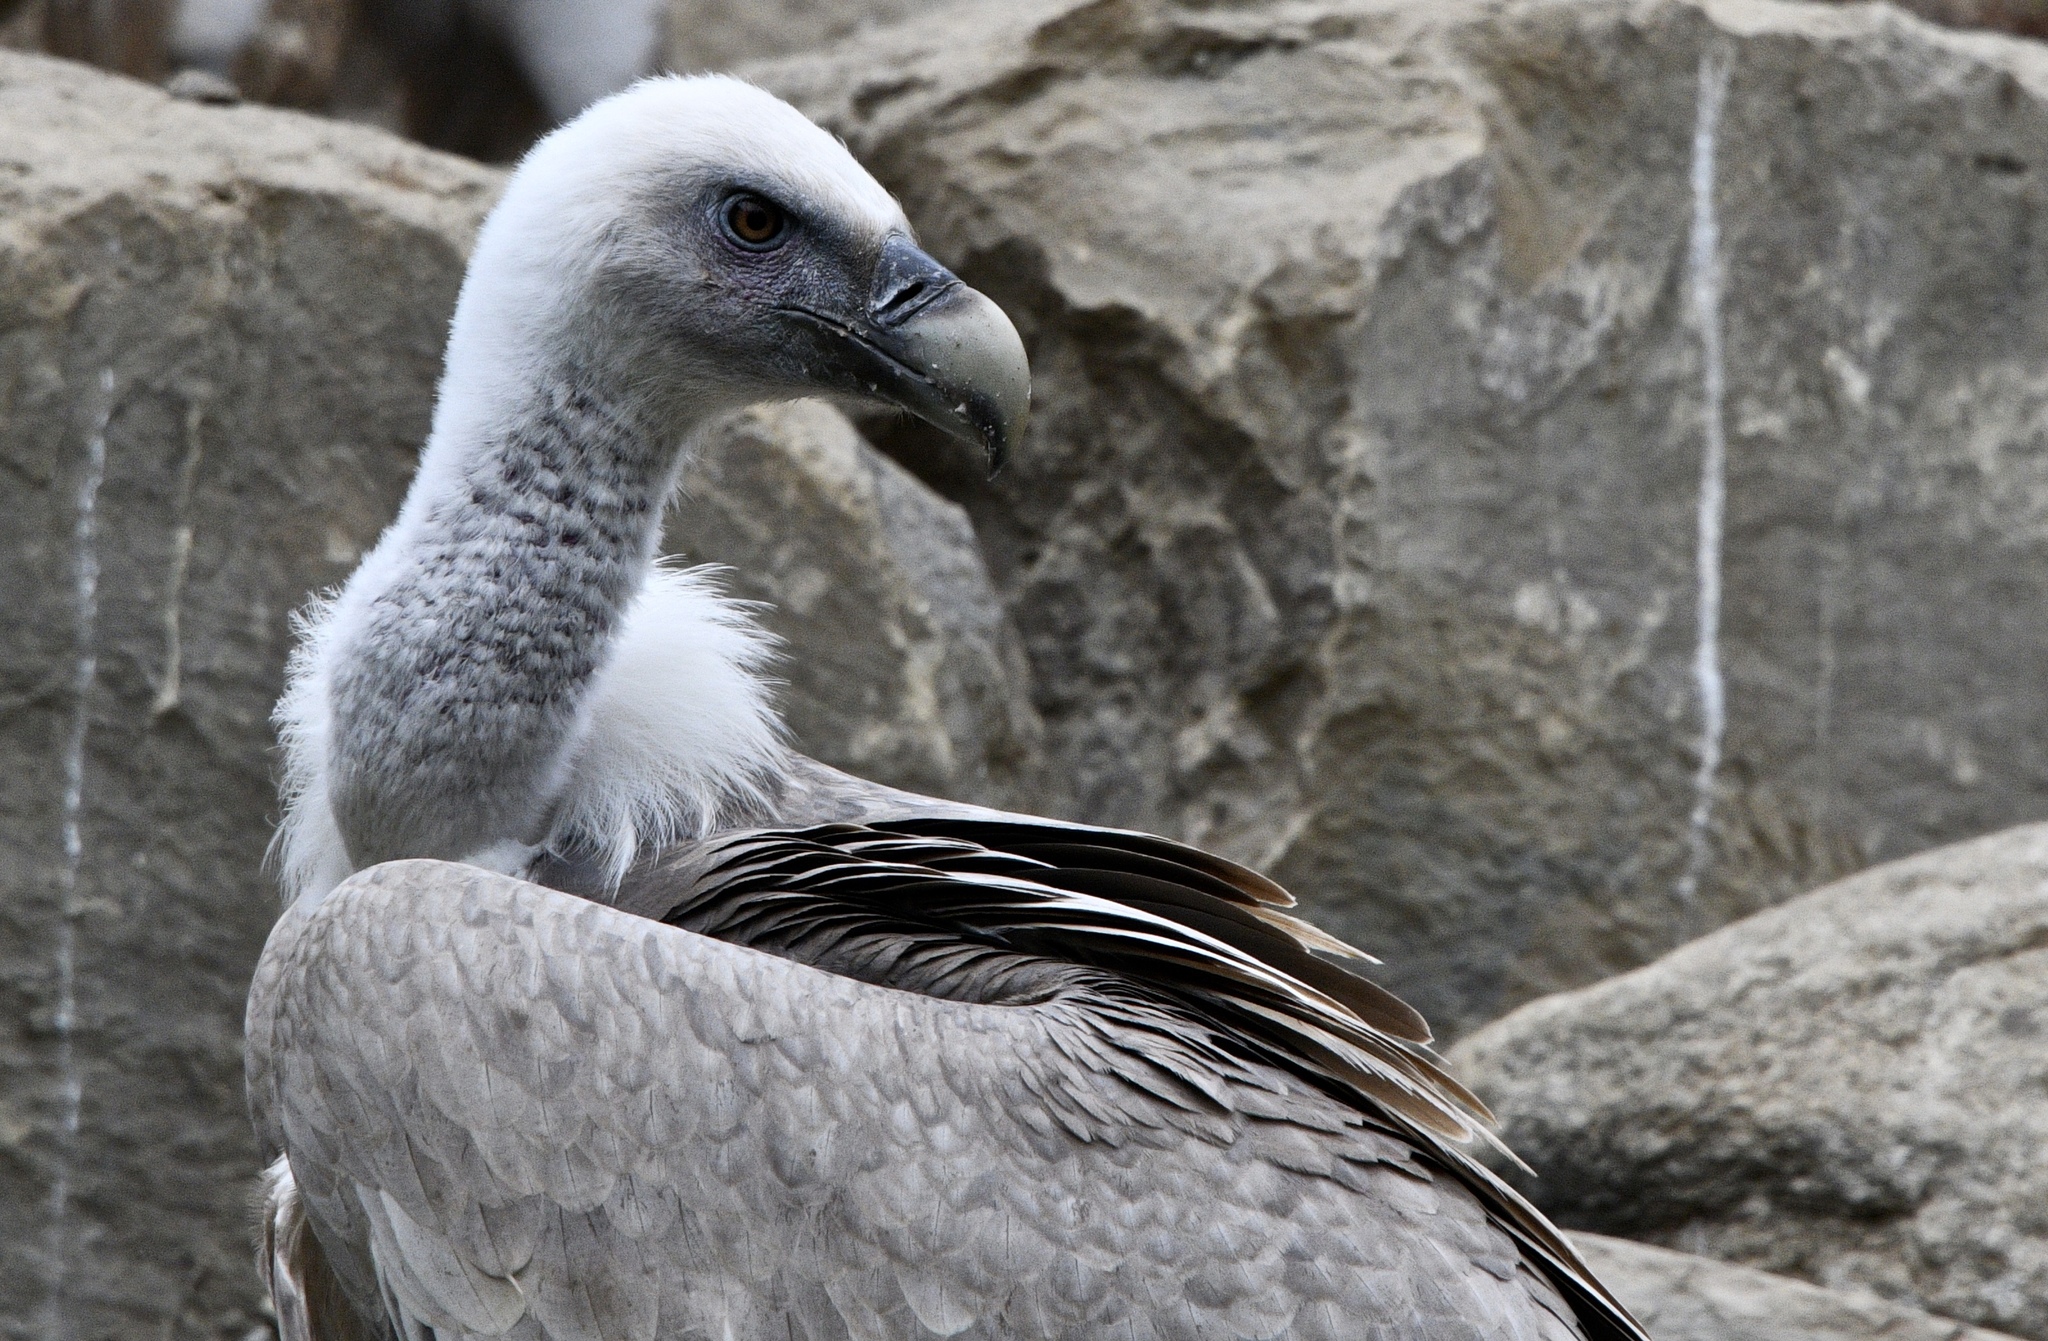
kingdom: Animalia
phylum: Chordata
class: Aves
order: Accipitriformes
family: Accipitridae
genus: Gyps
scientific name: Gyps fulvus
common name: Griffon vulture
